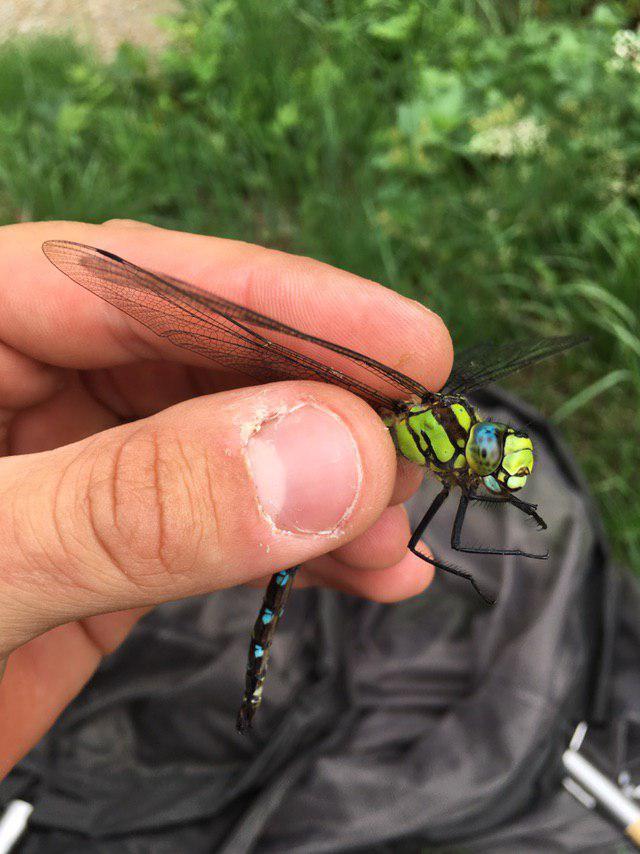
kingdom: Animalia
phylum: Arthropoda
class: Insecta
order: Odonata
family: Aeshnidae
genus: Aeshna
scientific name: Aeshna cyanea
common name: Southern hawker
